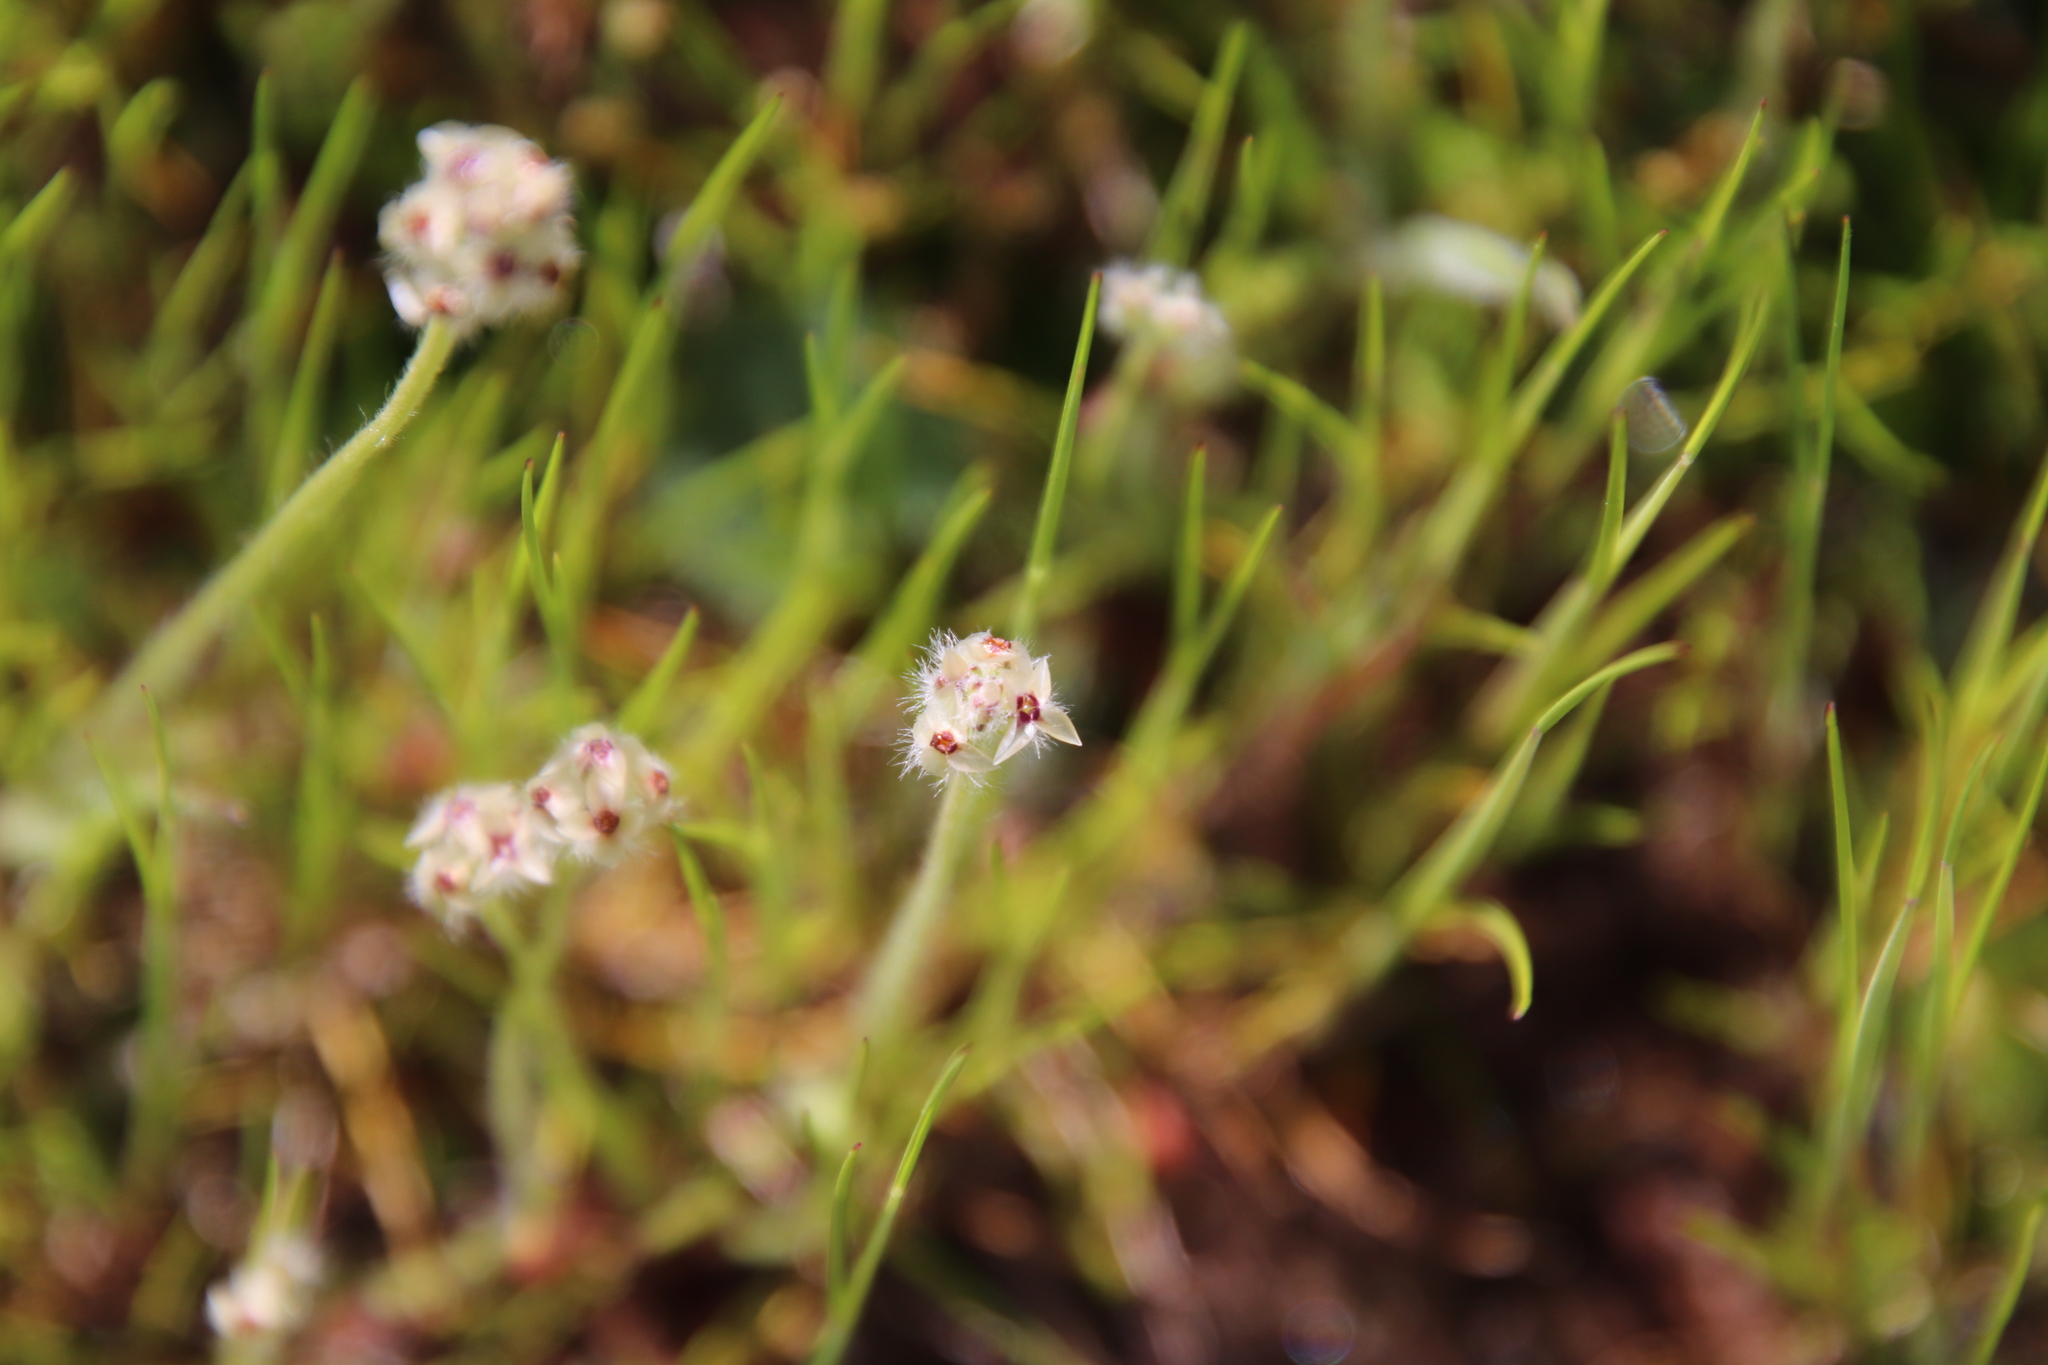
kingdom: Plantae
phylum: Tracheophyta
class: Magnoliopsida
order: Lamiales
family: Plantaginaceae
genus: Plantago
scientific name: Plantago erecta
